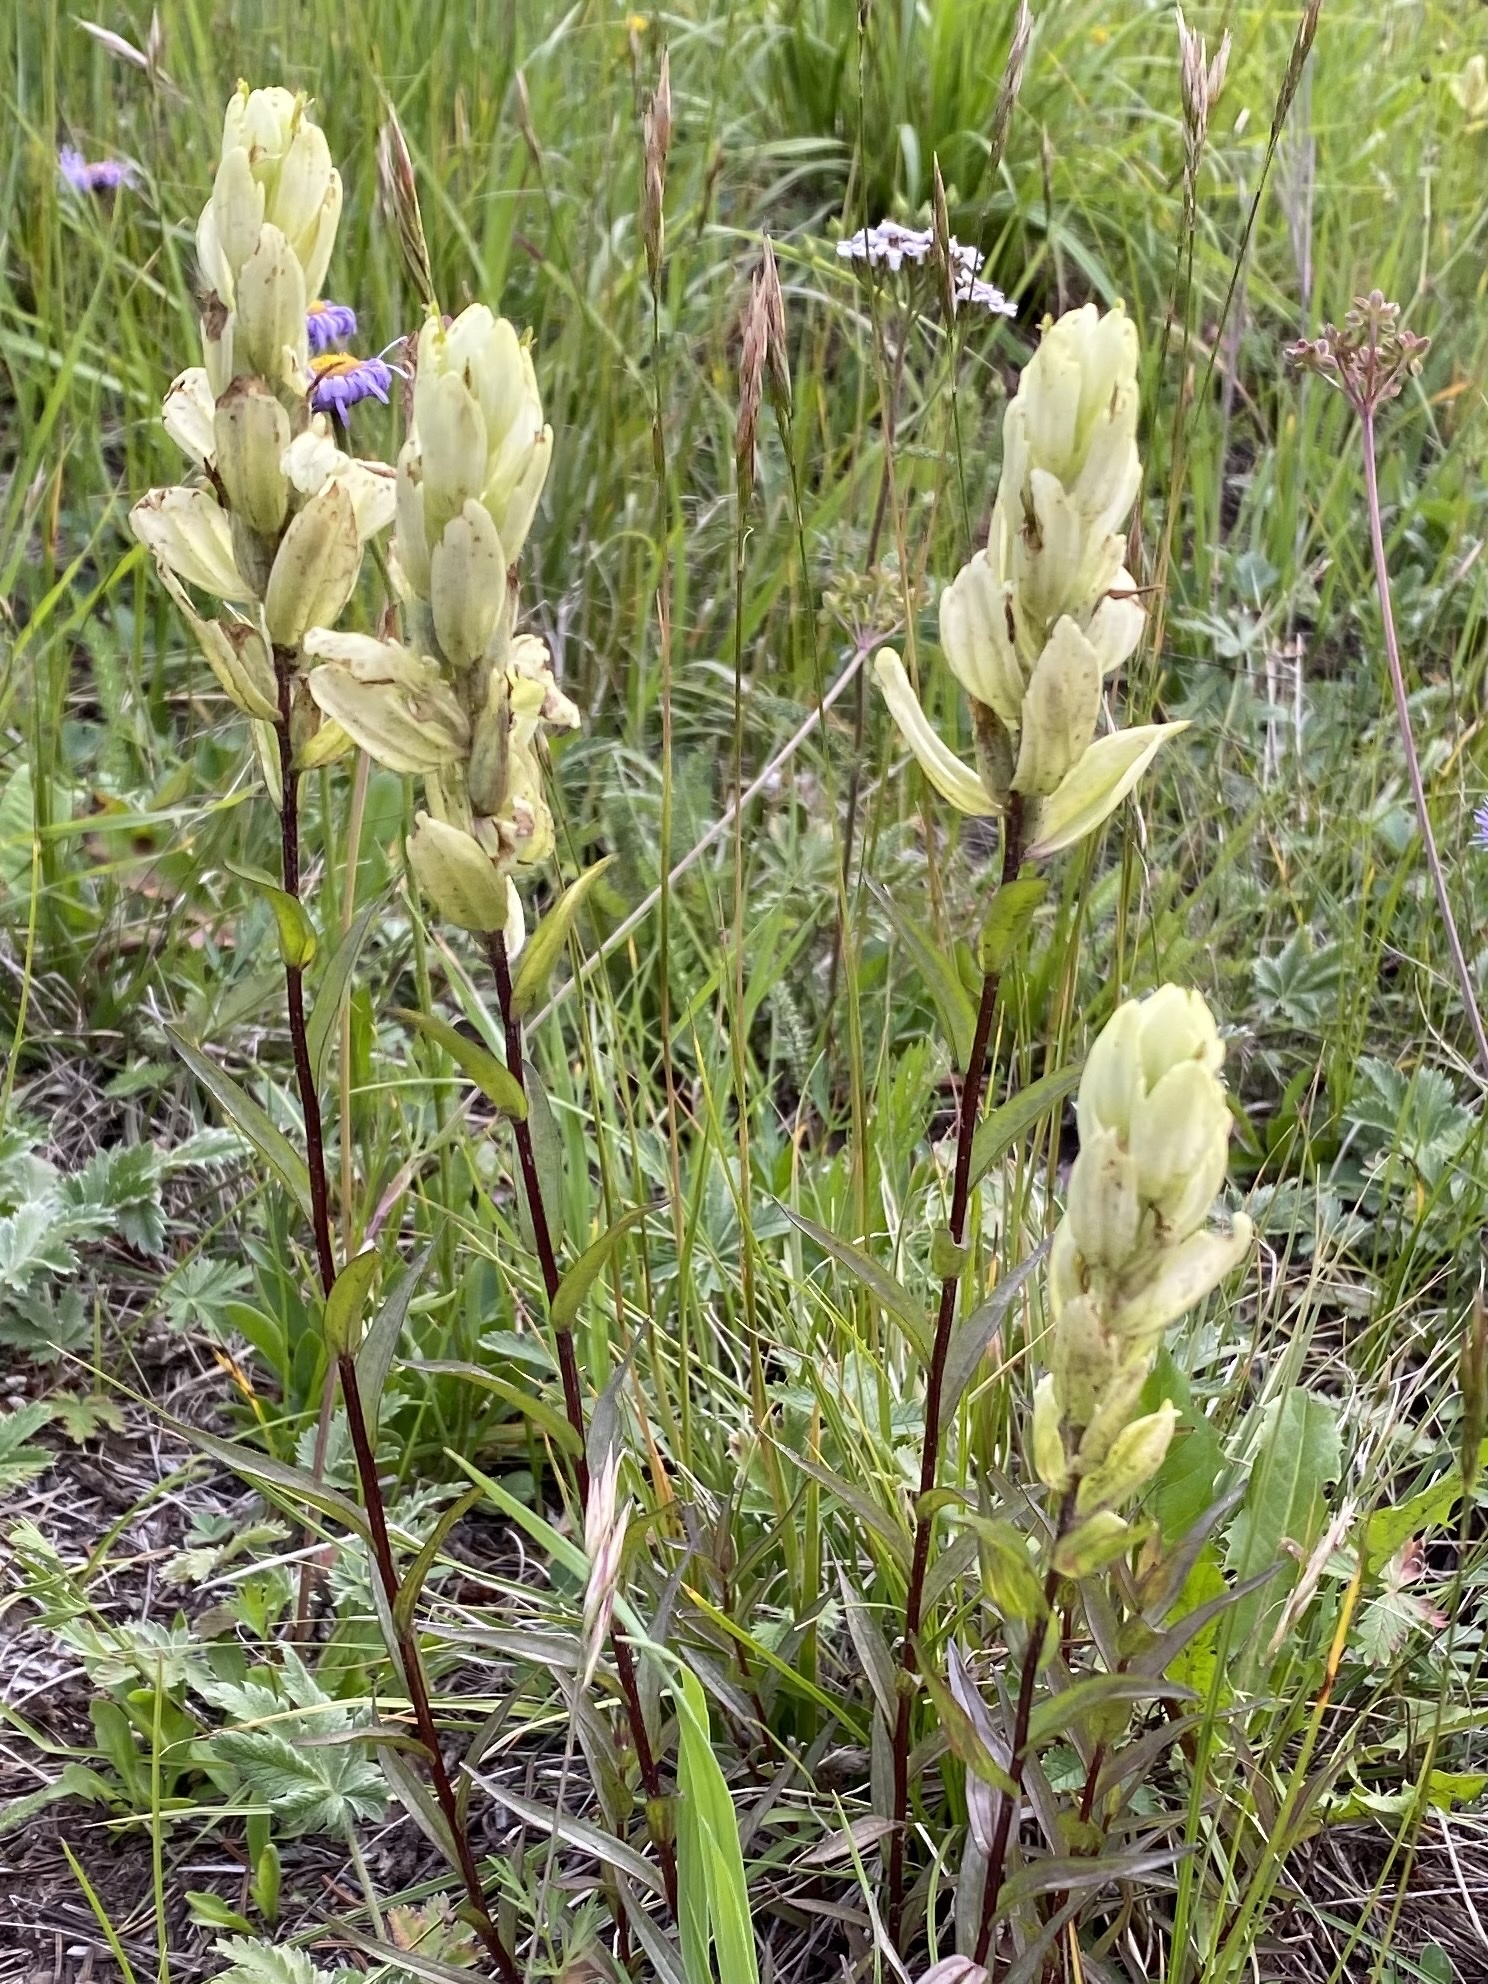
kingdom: Plantae
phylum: Tracheophyta
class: Magnoliopsida
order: Lamiales
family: Orobanchaceae
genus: Castilleja
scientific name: Castilleja septentrionalis
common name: Northeastern paintbrush
